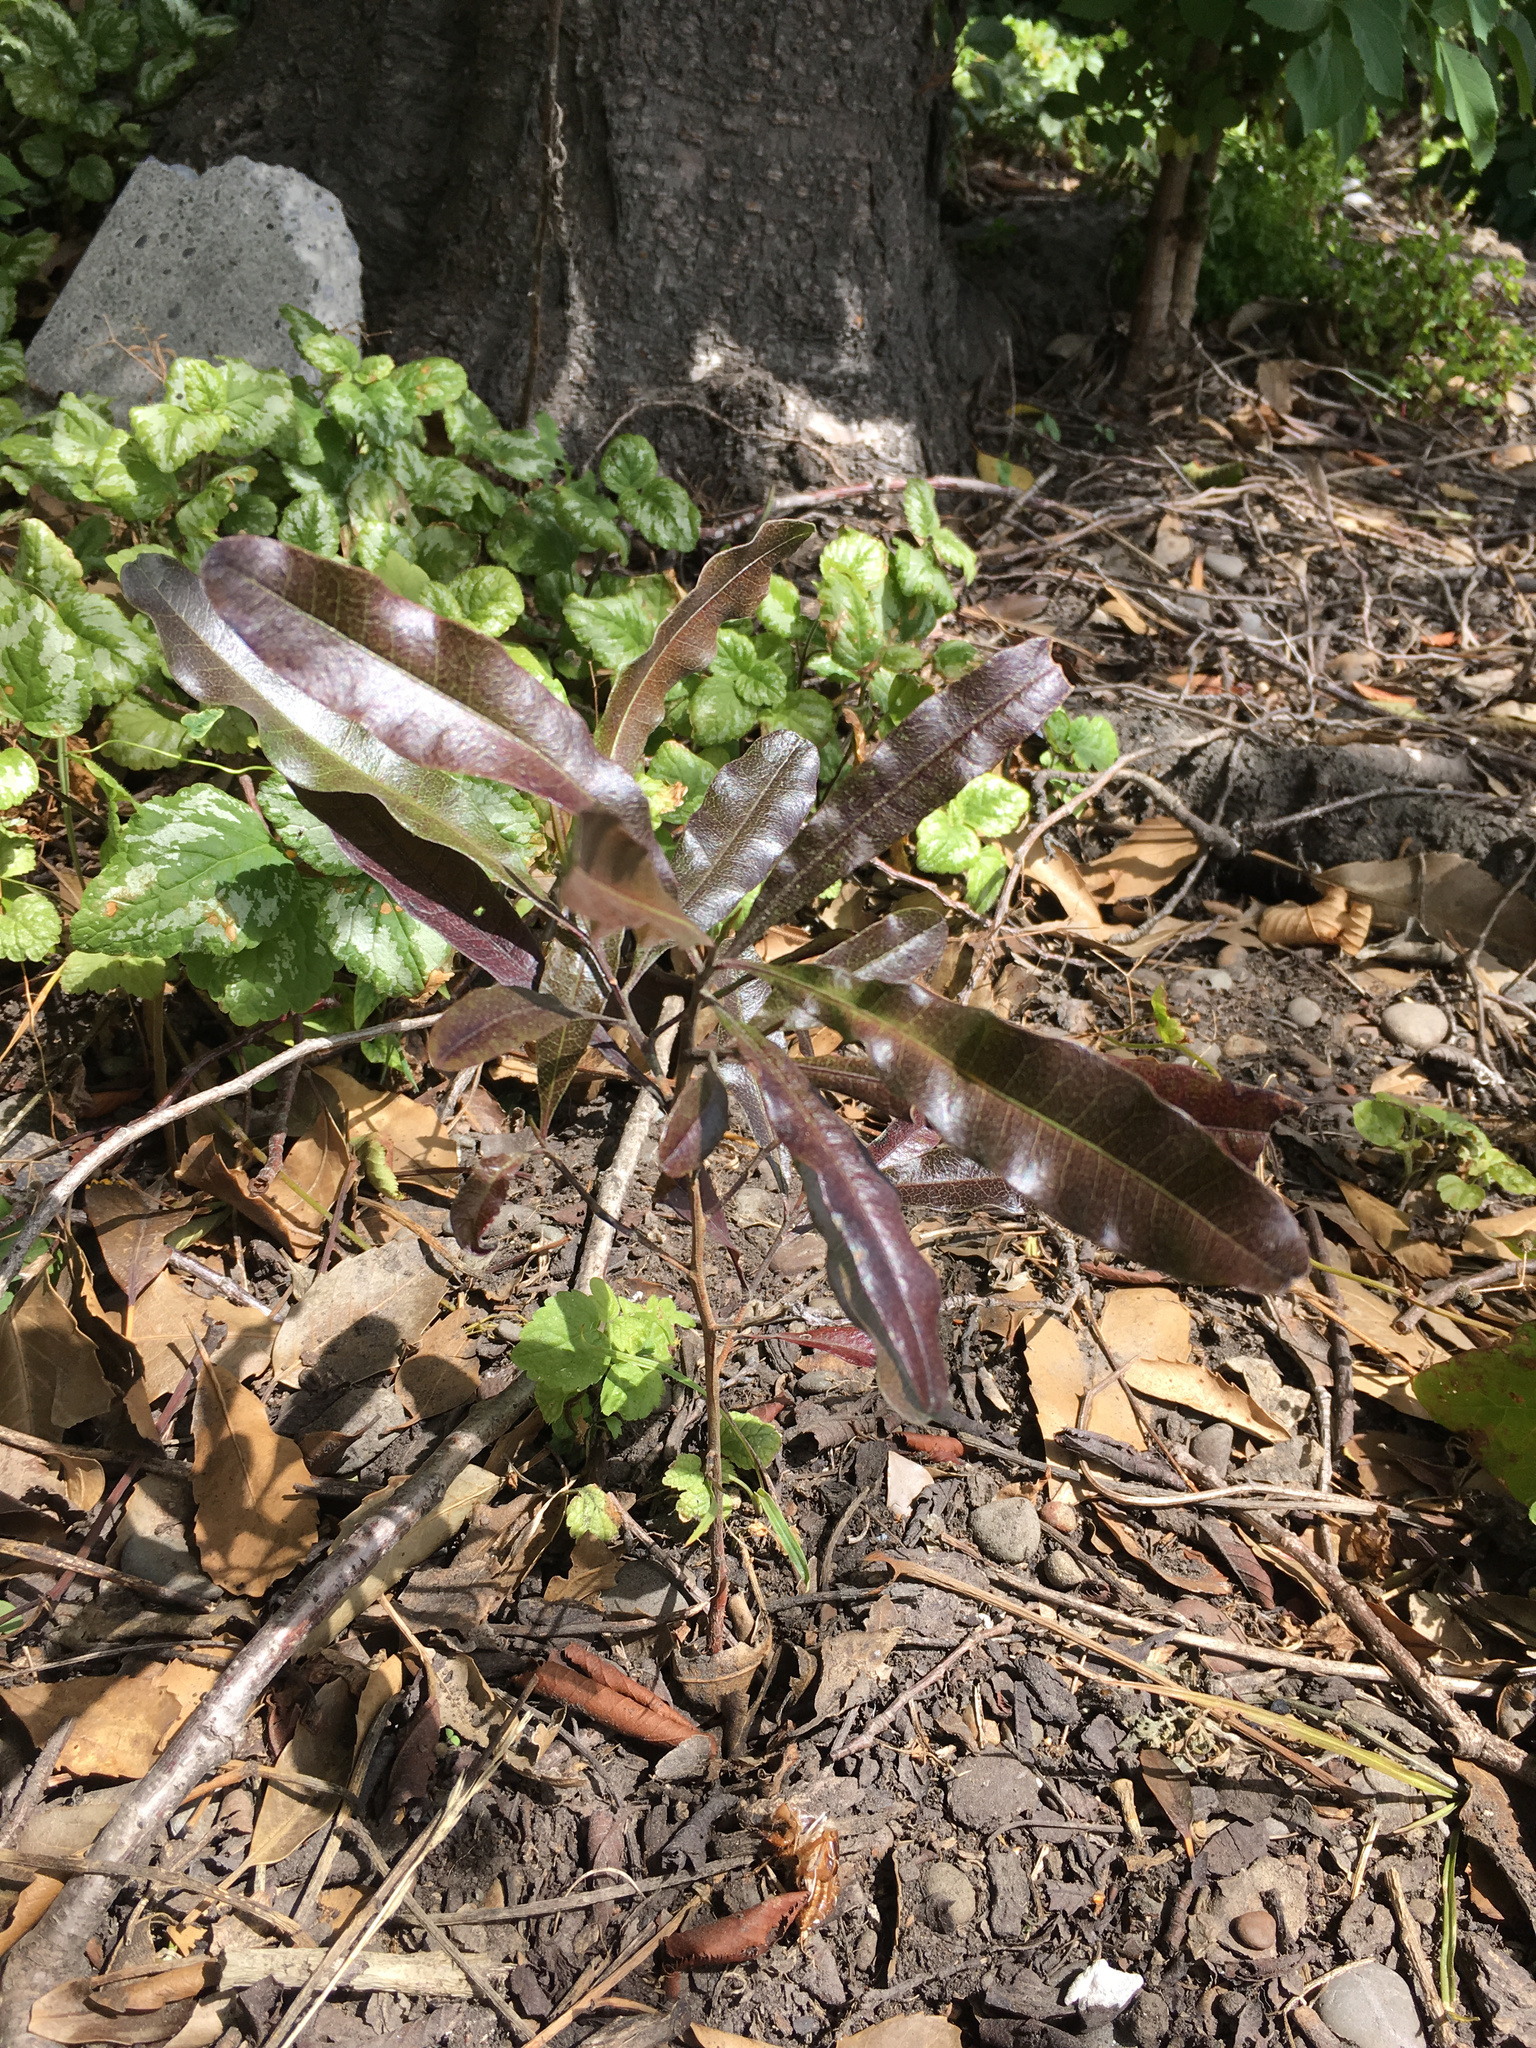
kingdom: Plantae
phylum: Tracheophyta
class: Magnoliopsida
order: Sapindales
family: Sapindaceae
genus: Dodonaea
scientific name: Dodonaea viscosa
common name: Hopbush
